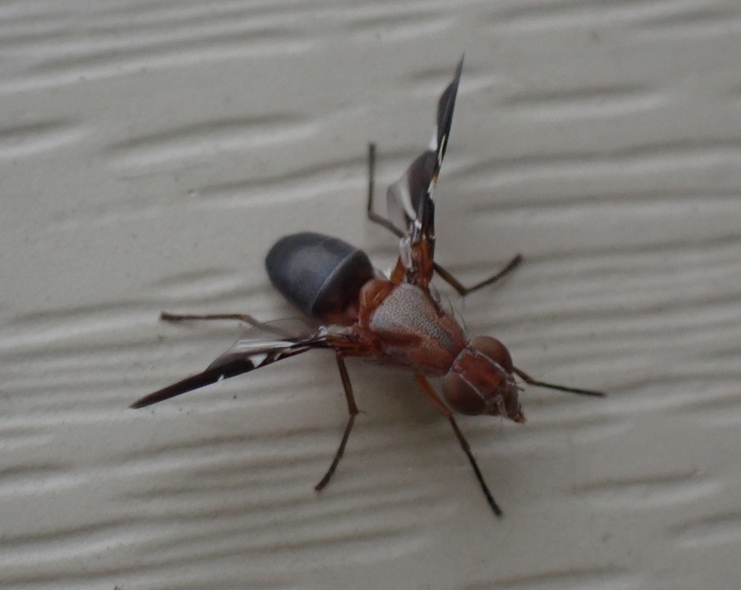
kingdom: Animalia
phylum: Arthropoda
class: Insecta
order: Diptera
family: Ulidiidae
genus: Delphinia
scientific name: Delphinia picta
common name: Common picture-winged fly
